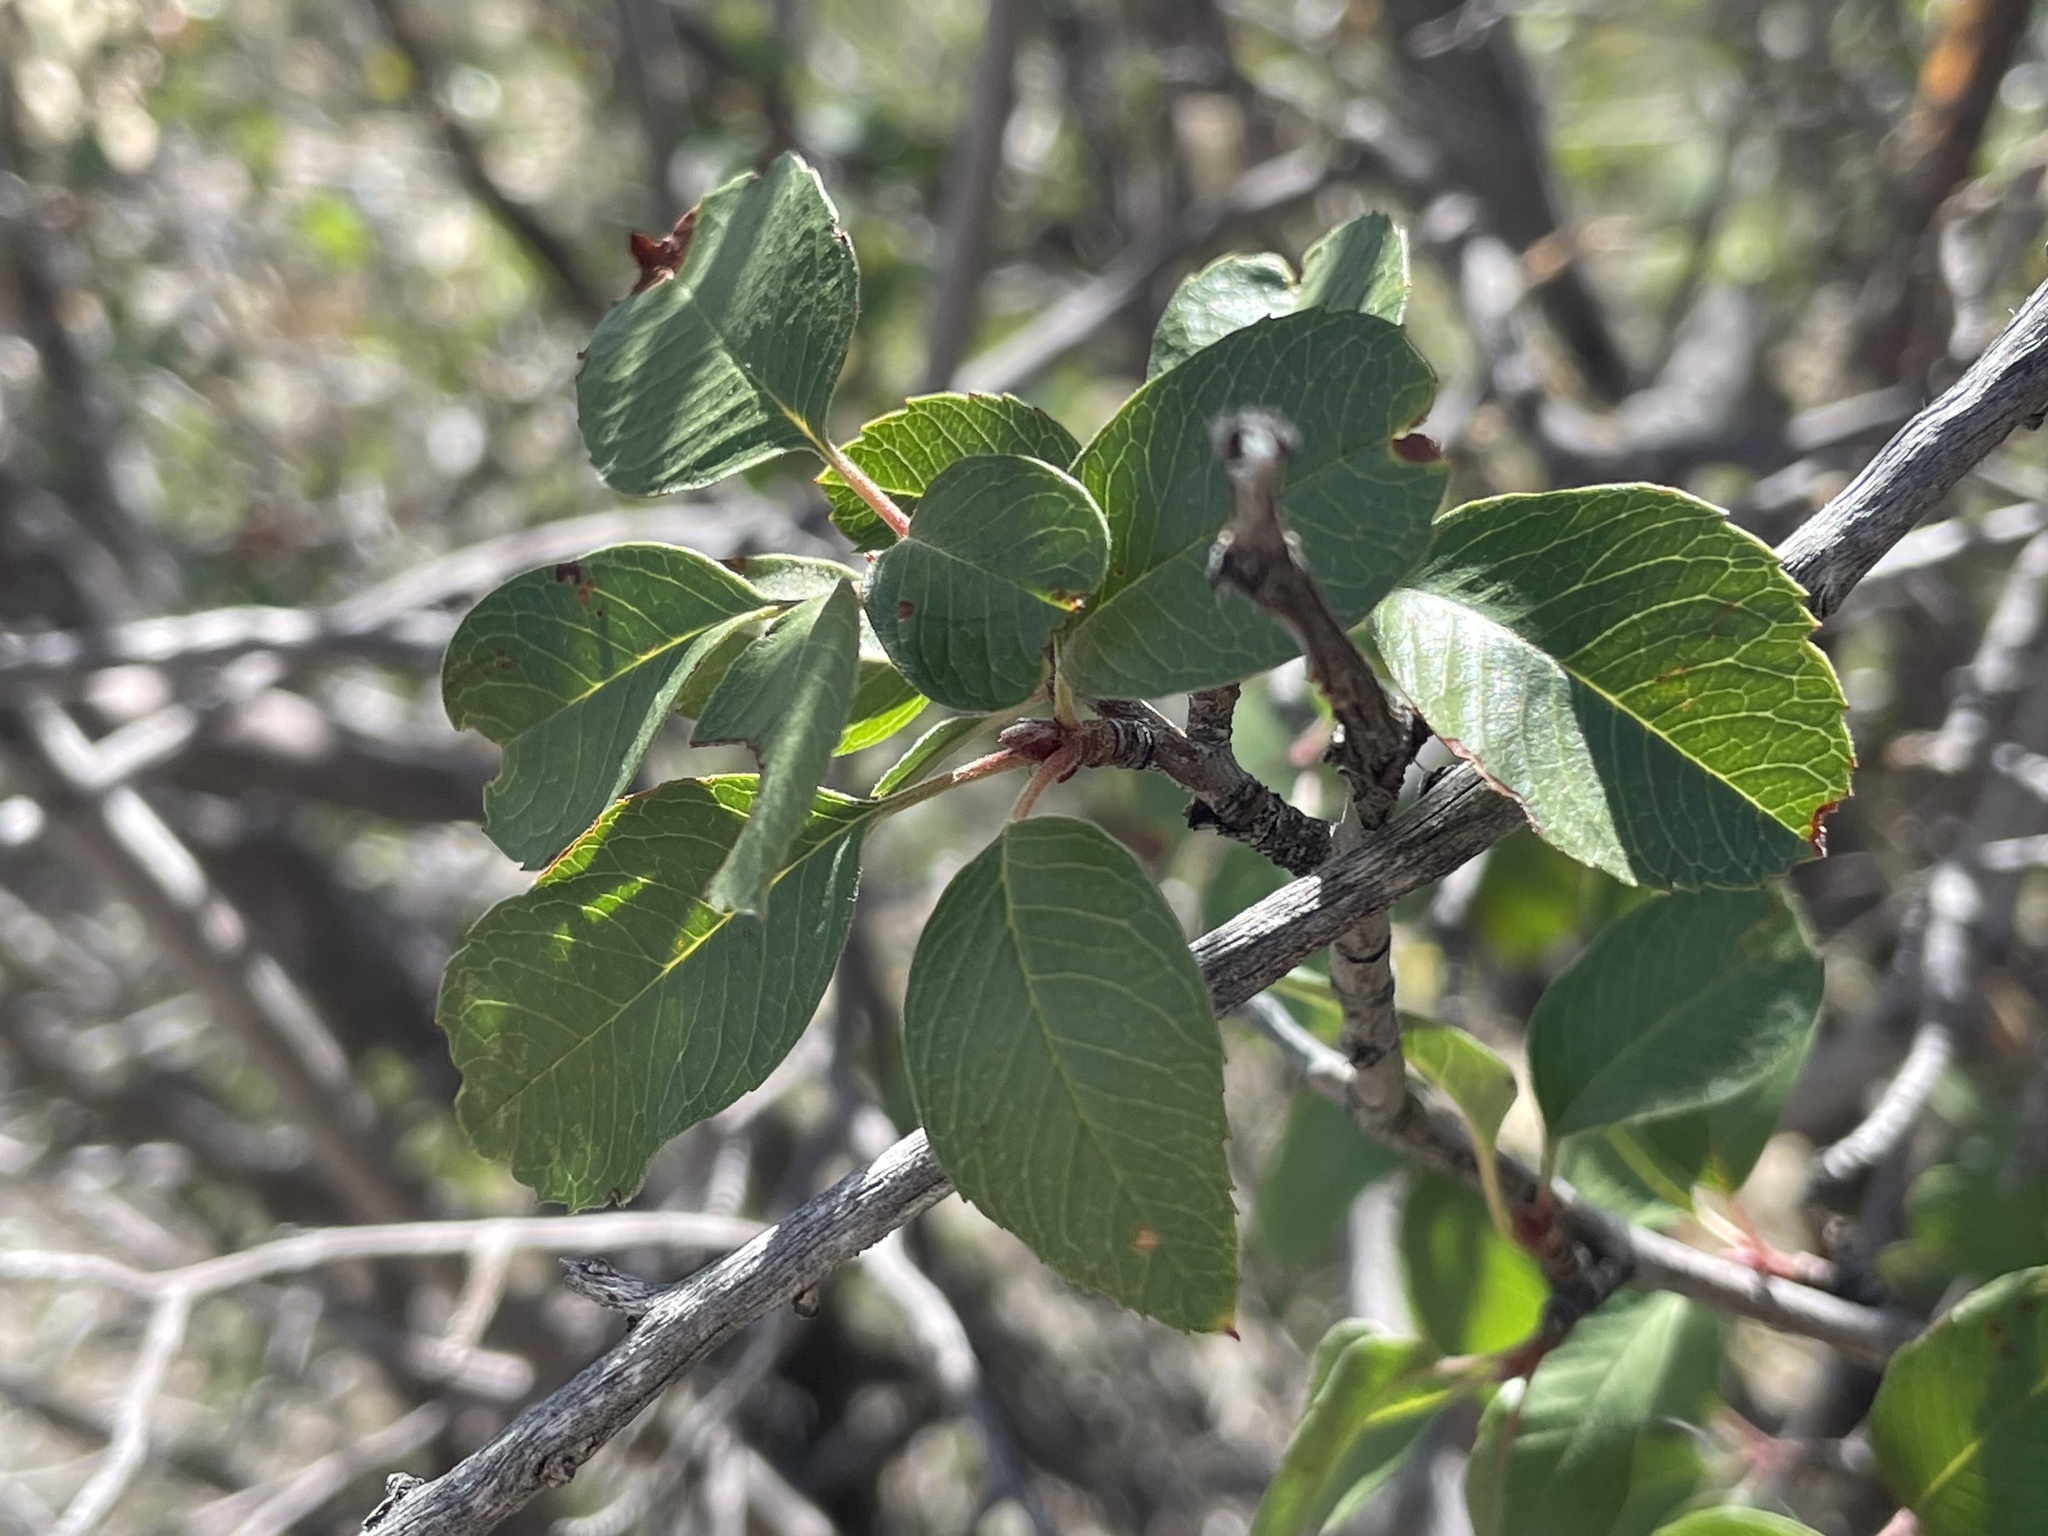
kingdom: Plantae
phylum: Tracheophyta
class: Magnoliopsida
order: Rosales
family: Rosaceae
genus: Amelanchier
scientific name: Amelanchier utahensis
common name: Utah serviceberry
